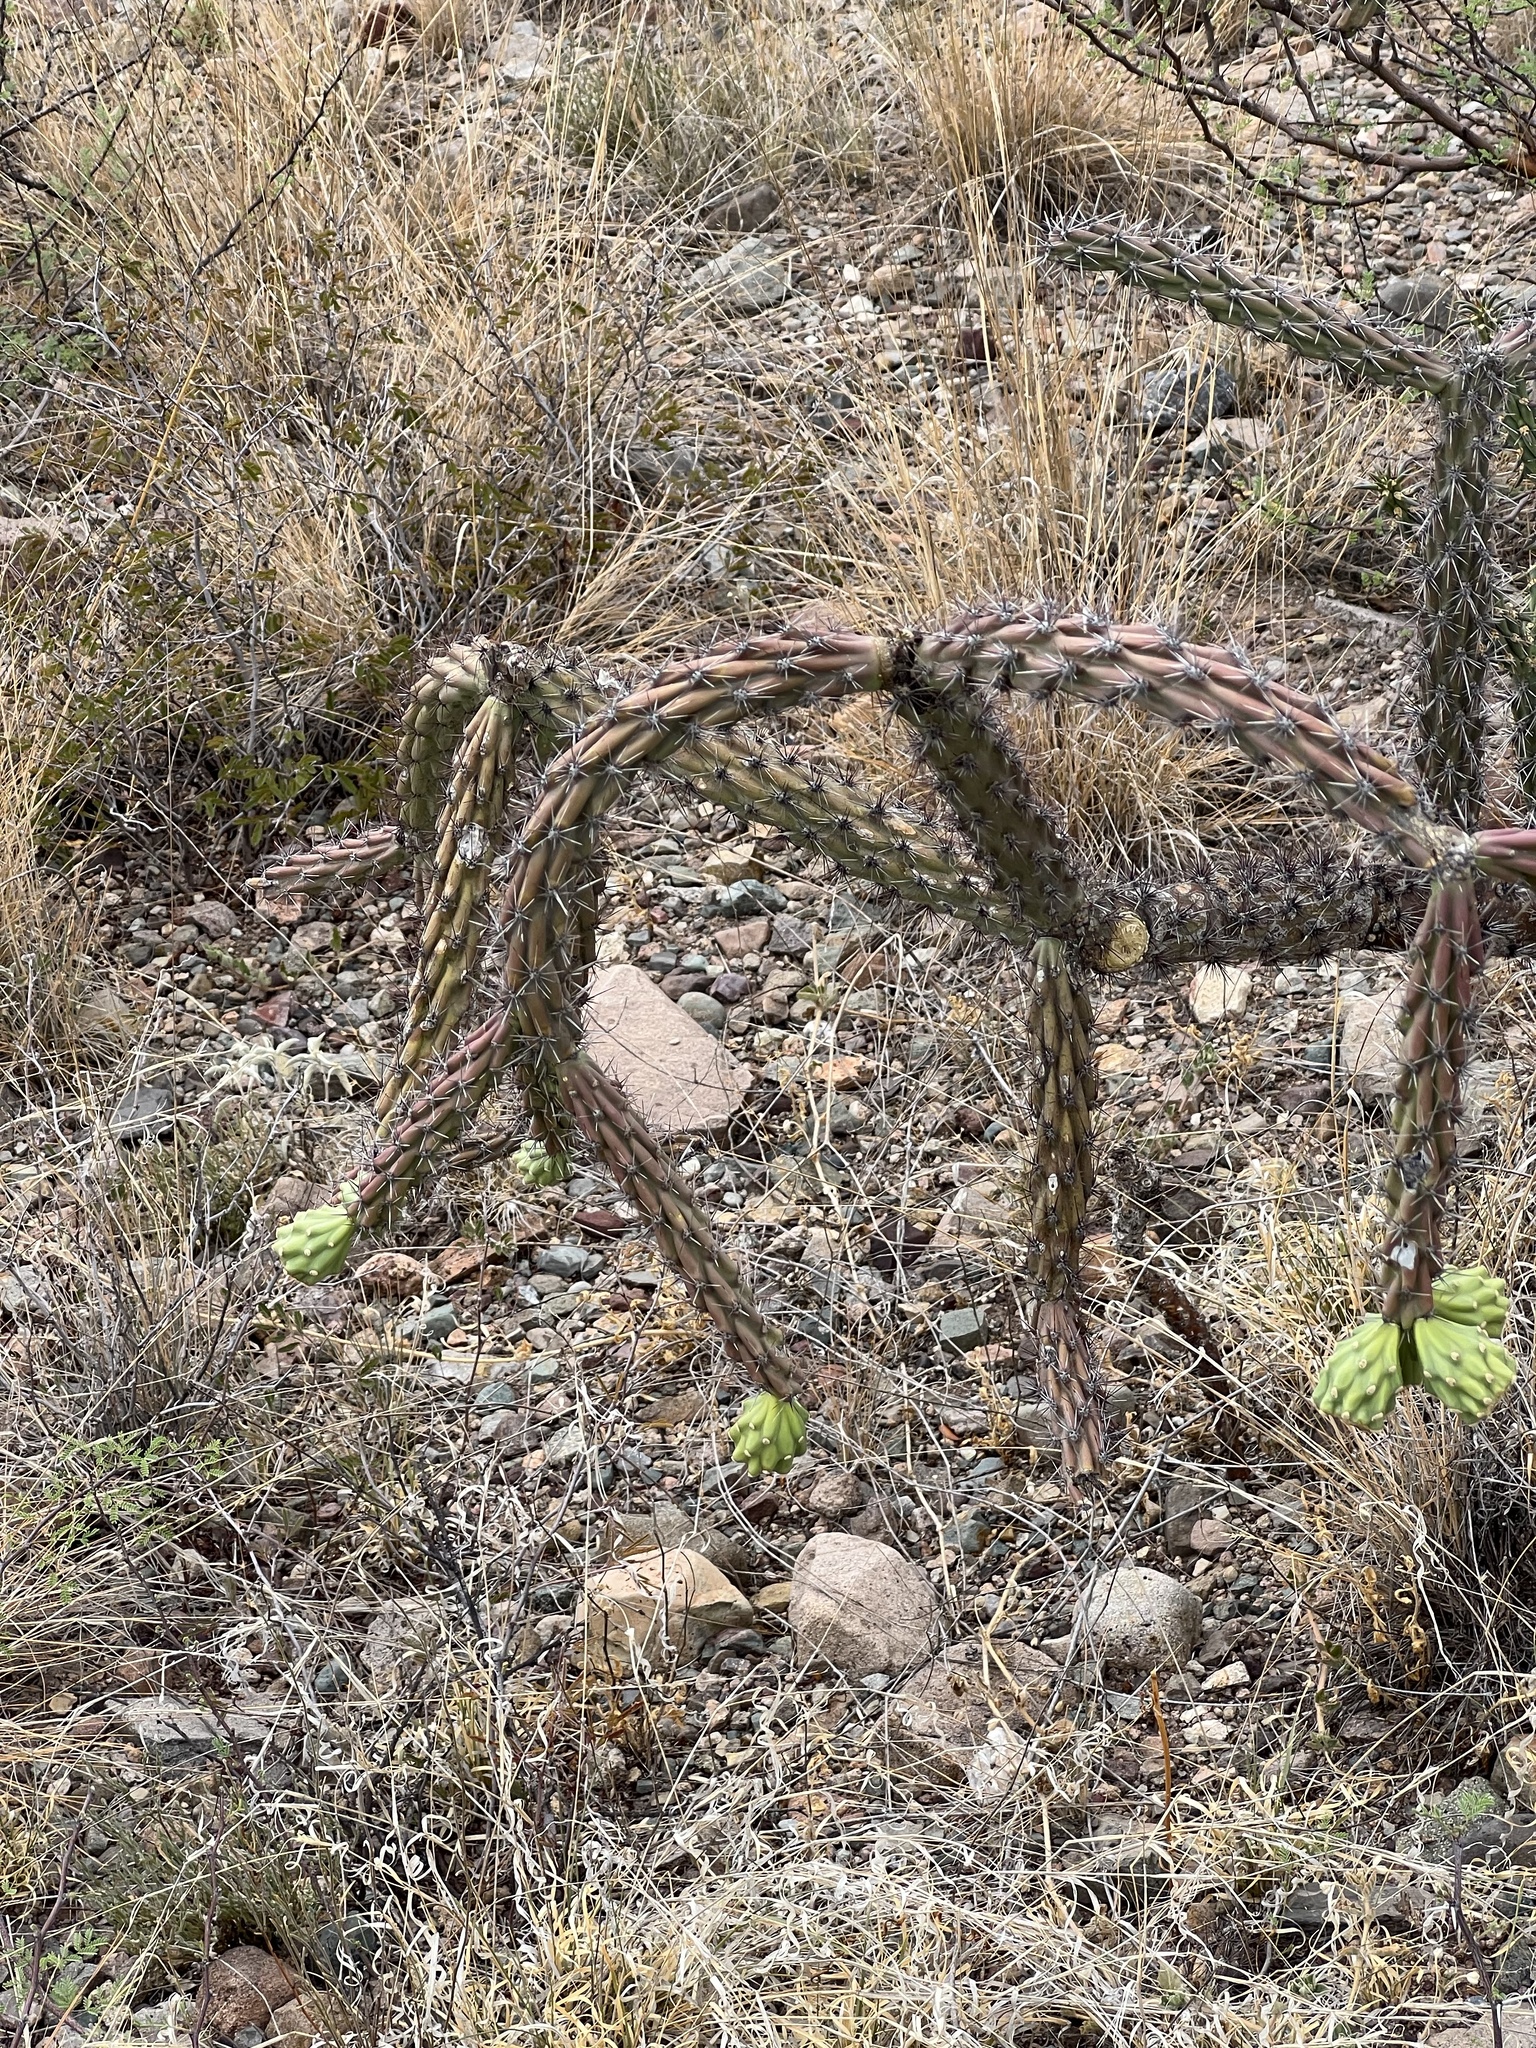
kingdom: Plantae
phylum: Tracheophyta
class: Magnoliopsida
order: Caryophyllales
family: Cactaceae
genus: Cylindropuntia
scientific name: Cylindropuntia thurberi
